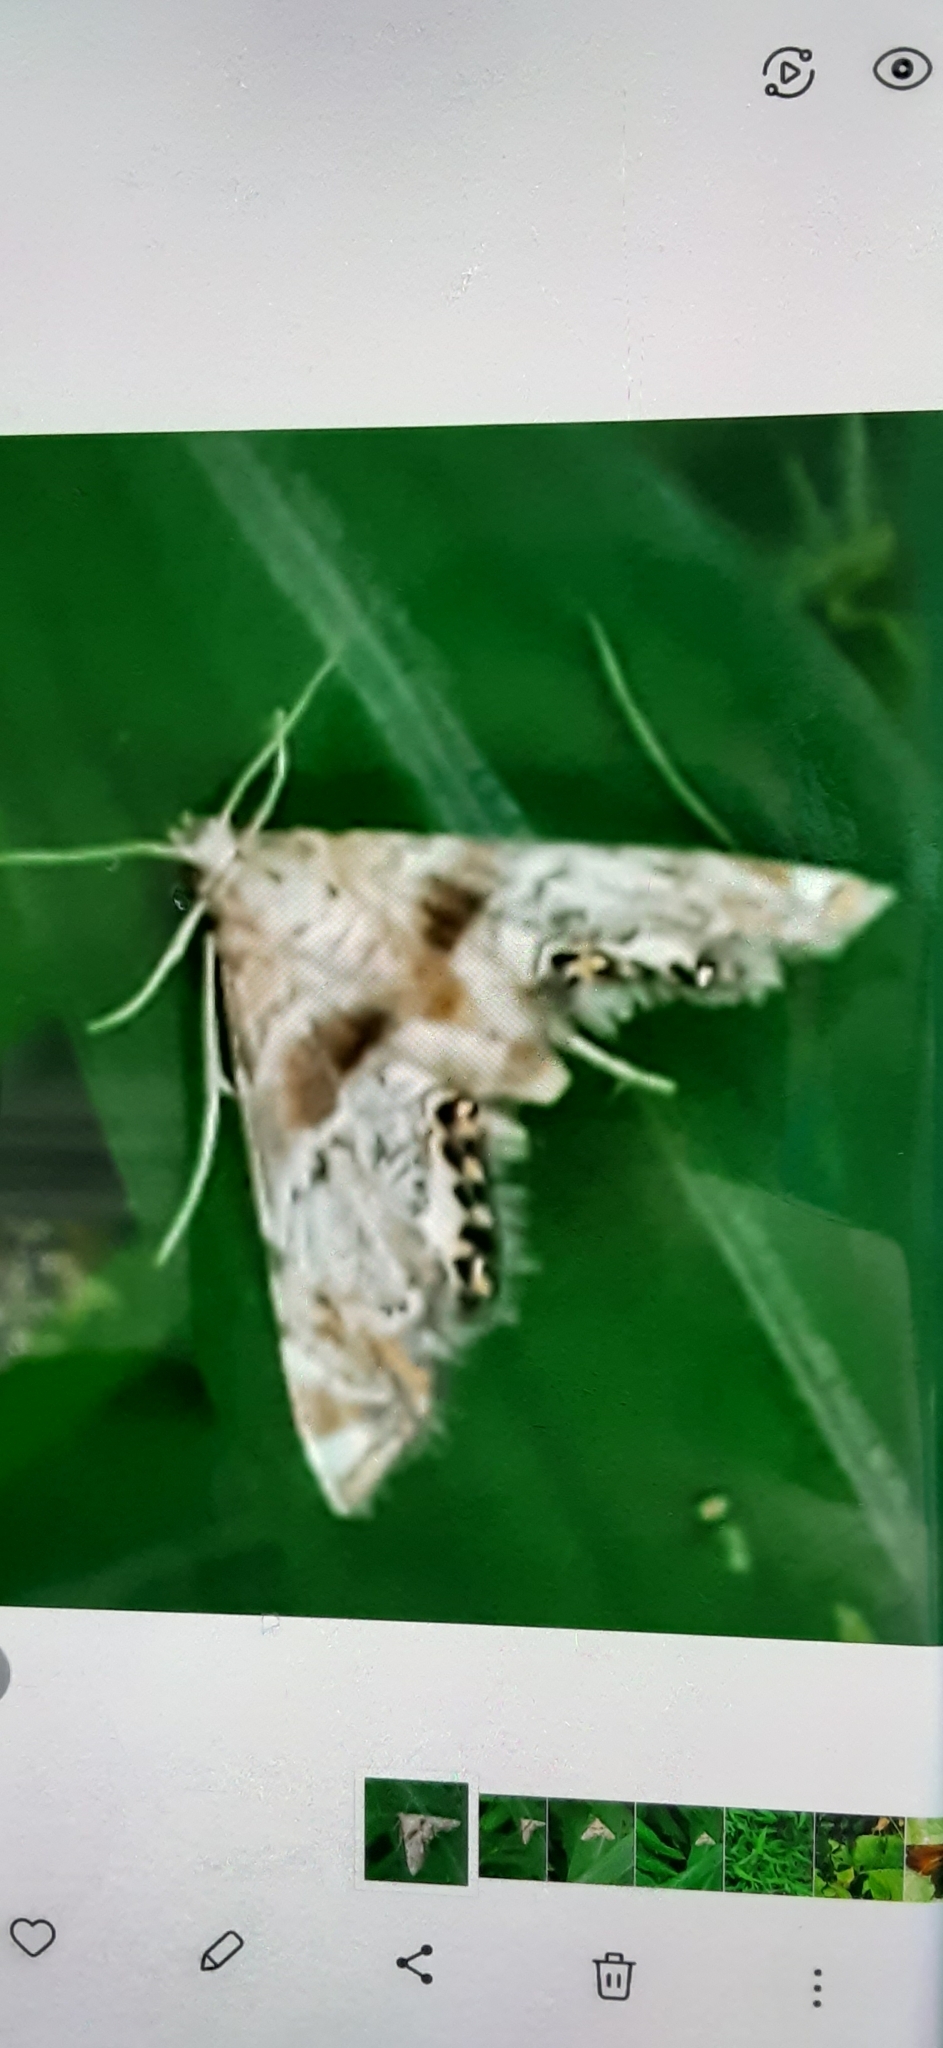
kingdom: Animalia
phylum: Arthropoda
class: Insecta
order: Lepidoptera
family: Crambidae
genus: Petrophila
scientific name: Petrophila fulicalis
